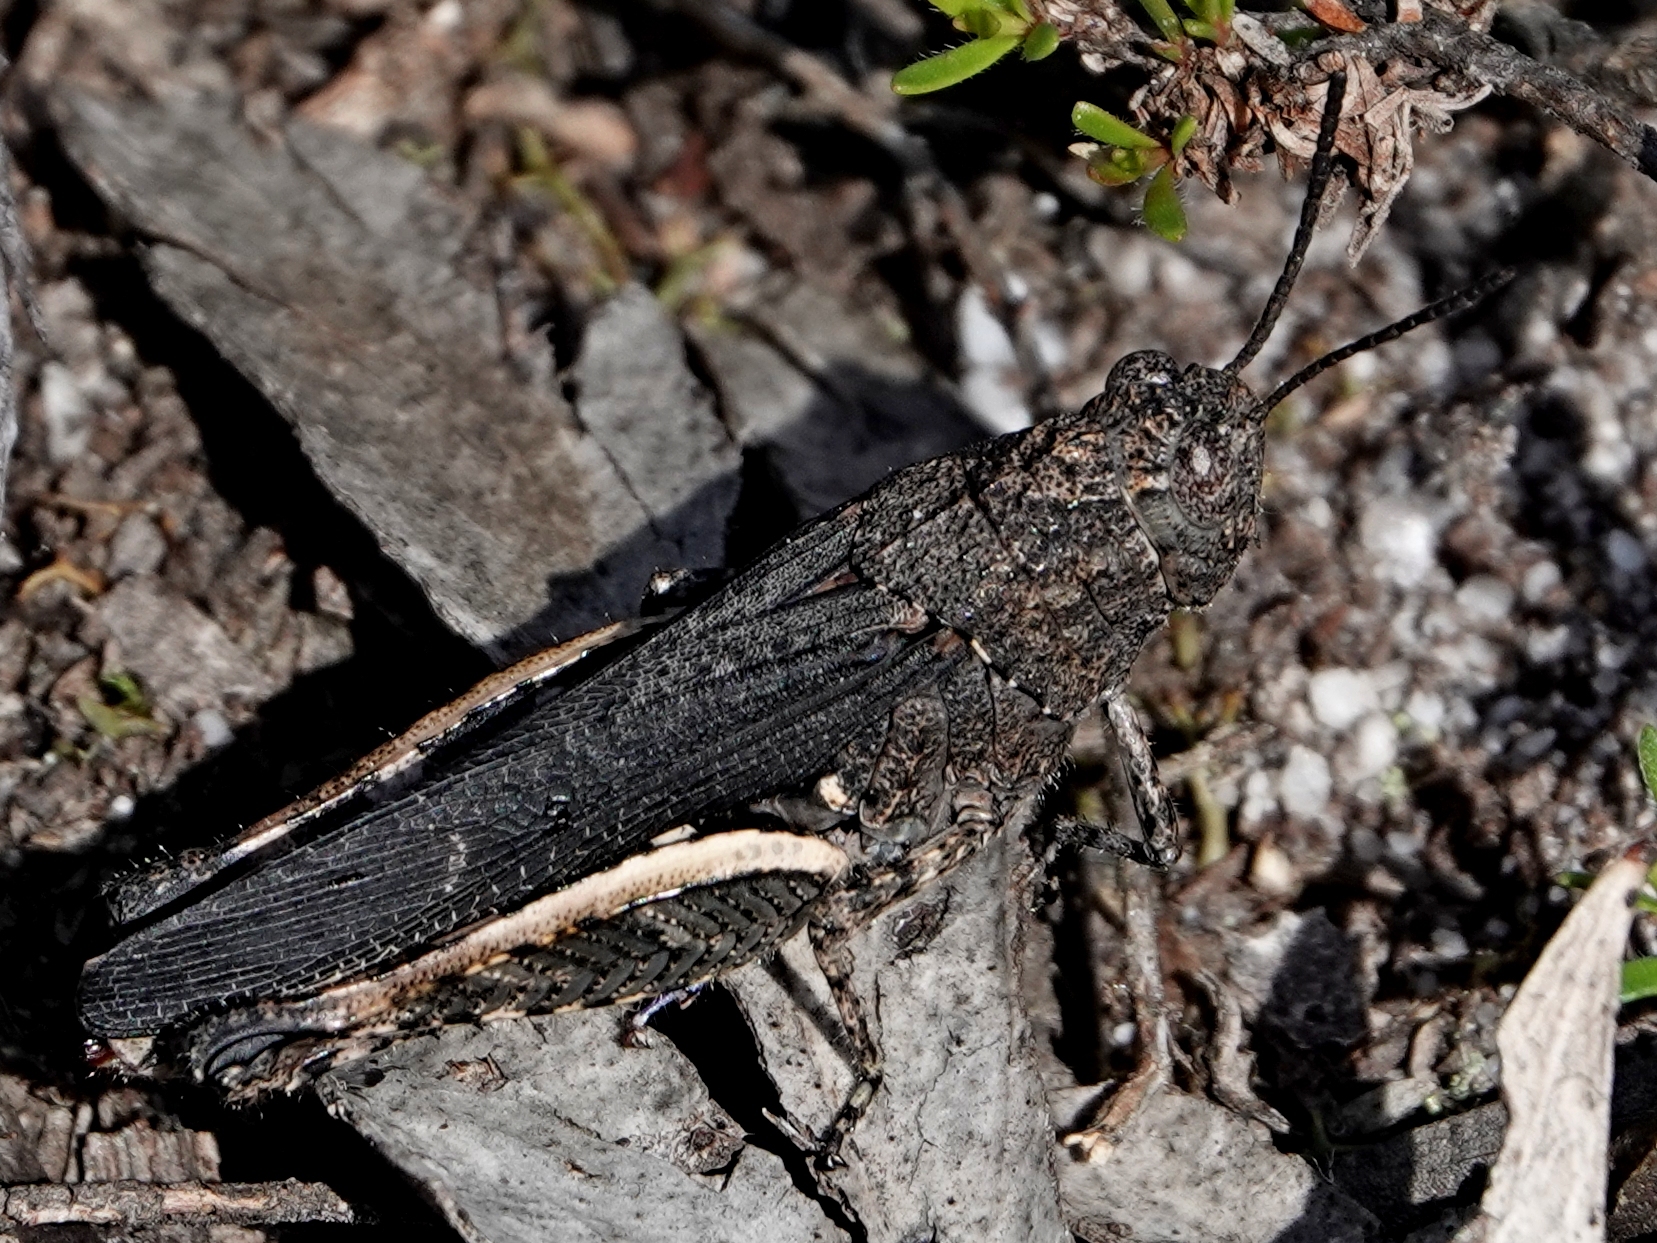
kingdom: Animalia
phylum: Arthropoda
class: Insecta
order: Orthoptera
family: Acrididae
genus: Cirphula
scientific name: Cirphula pyrrhocnemis
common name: Variable cirphula
